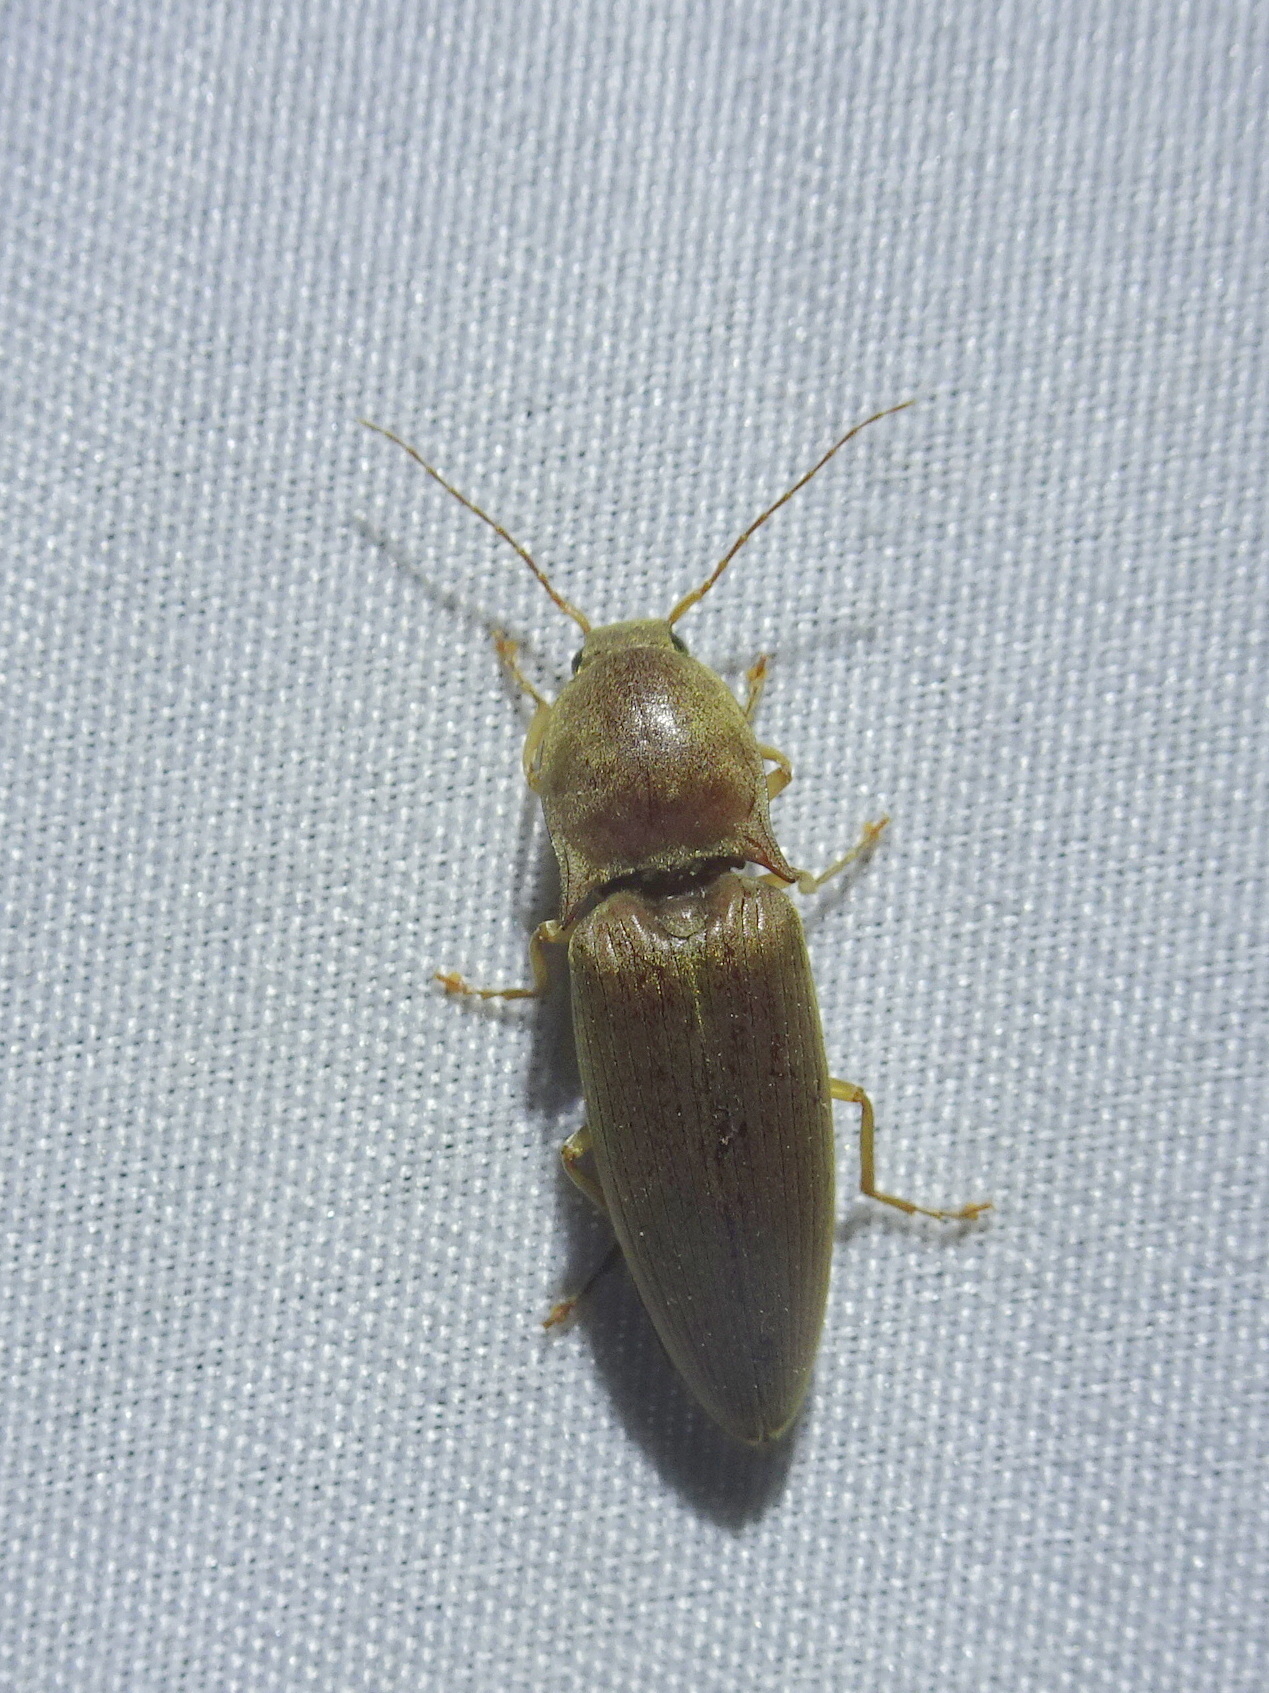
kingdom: Animalia
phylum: Arthropoda
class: Insecta
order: Coleoptera
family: Elateridae
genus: Monocrepidius
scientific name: Monocrepidius lividus
